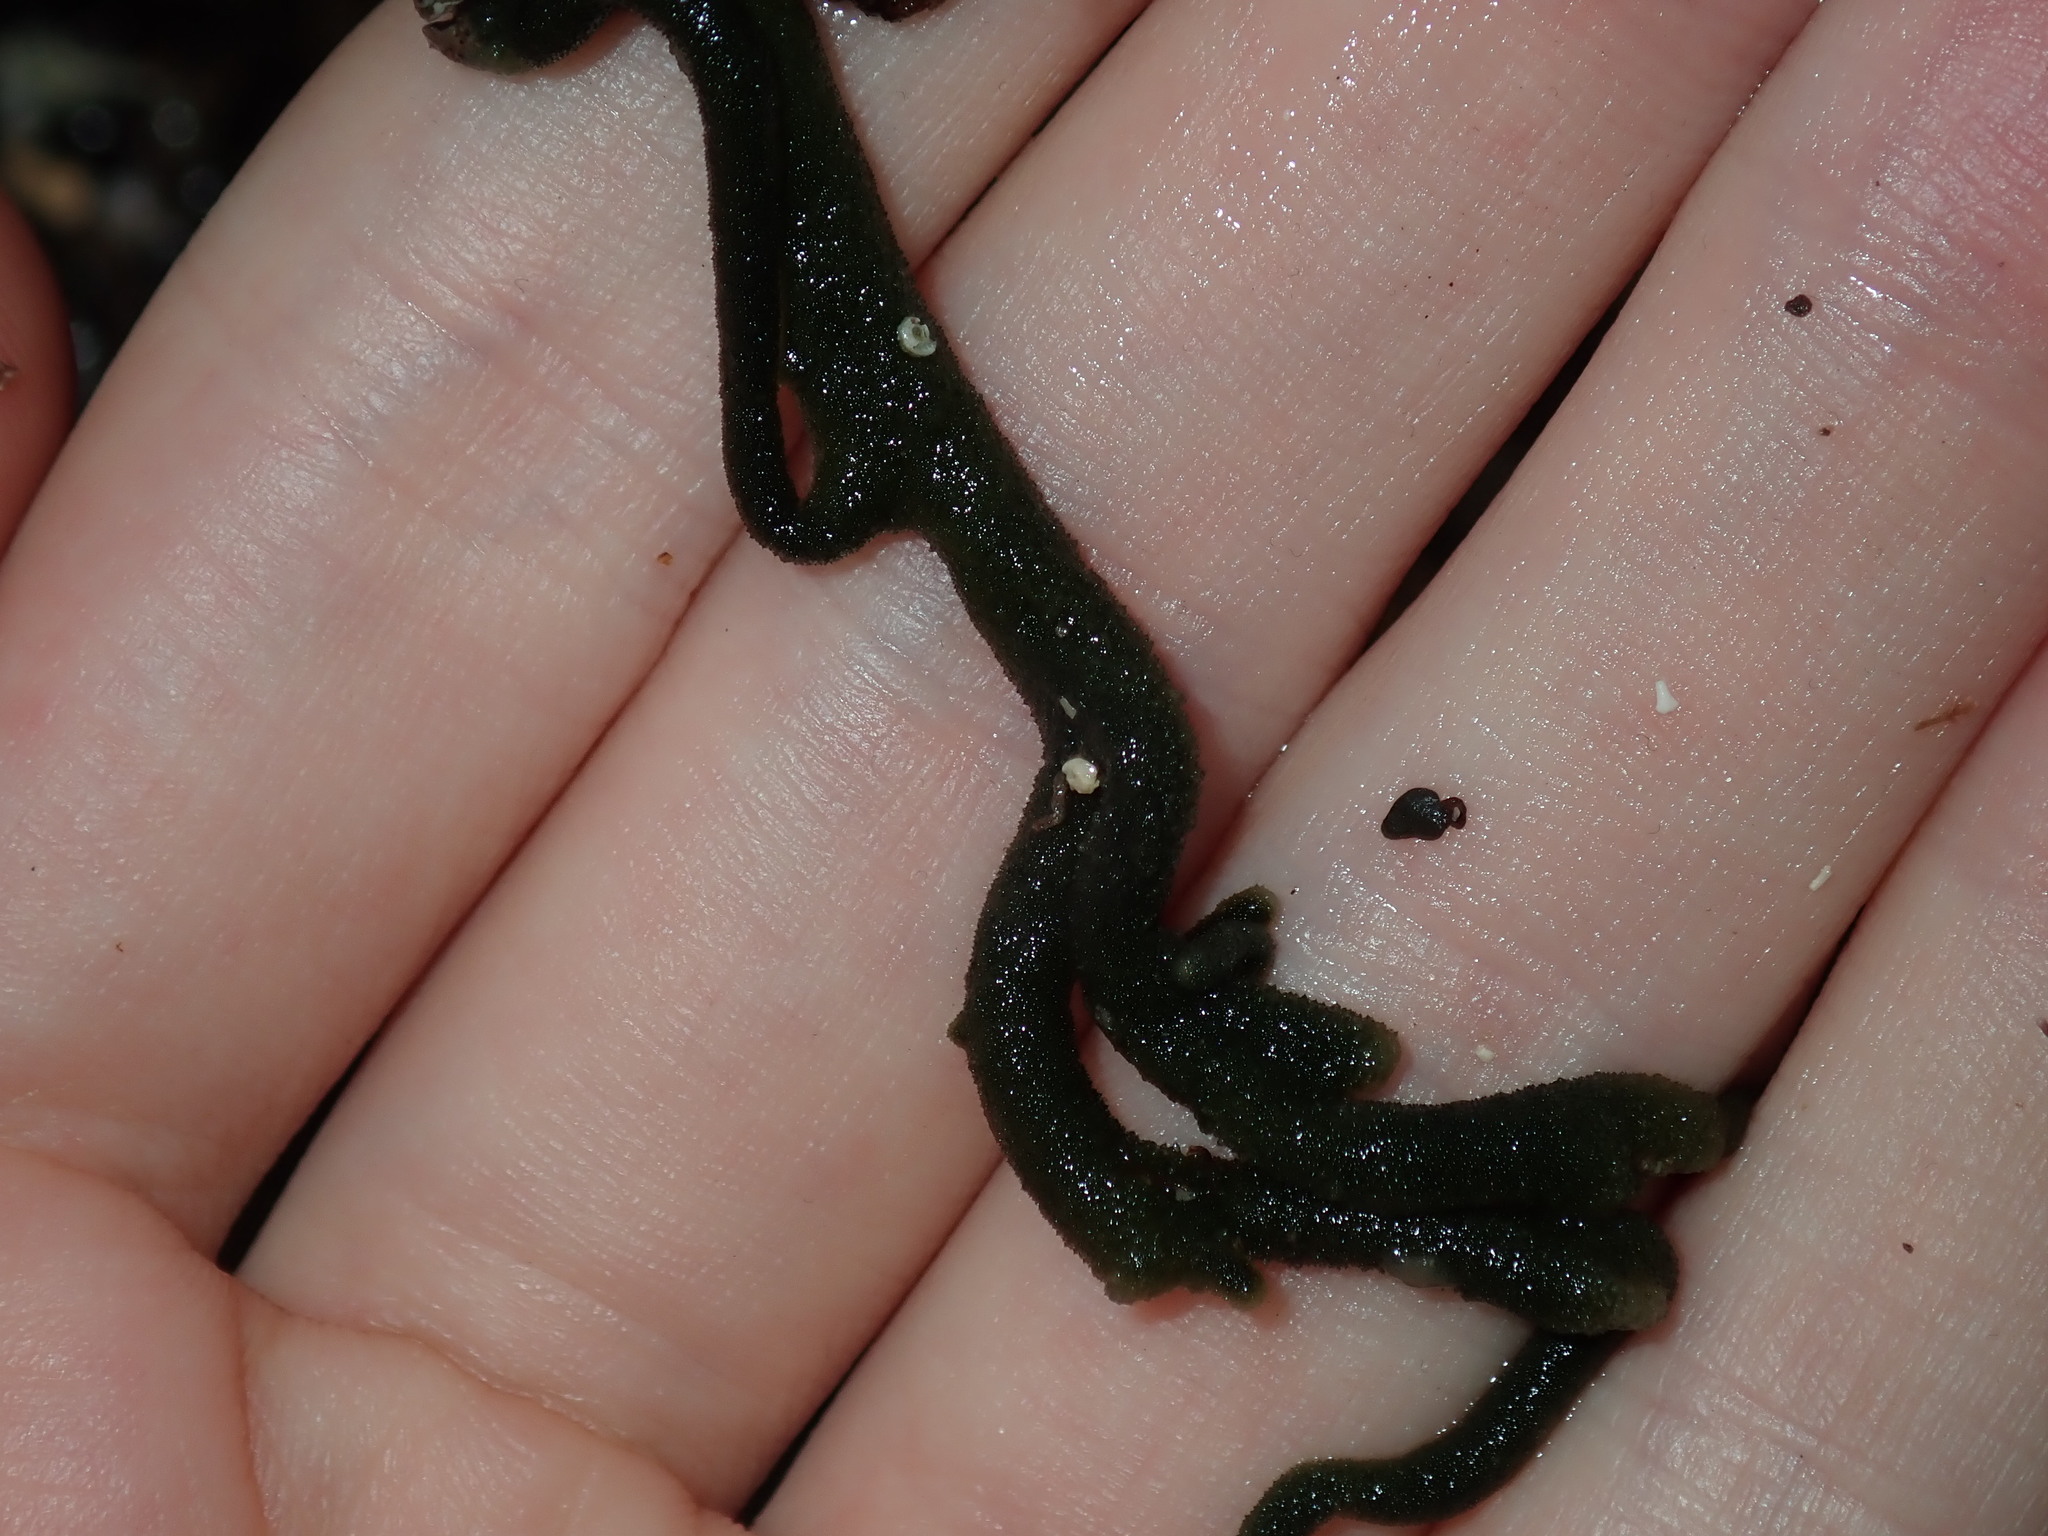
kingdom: Plantae
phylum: Chlorophyta
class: Ulvophyceae
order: Bryopsidales
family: Codiaceae
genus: Codium
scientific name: Codium fragile
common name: Dead man's fingers
